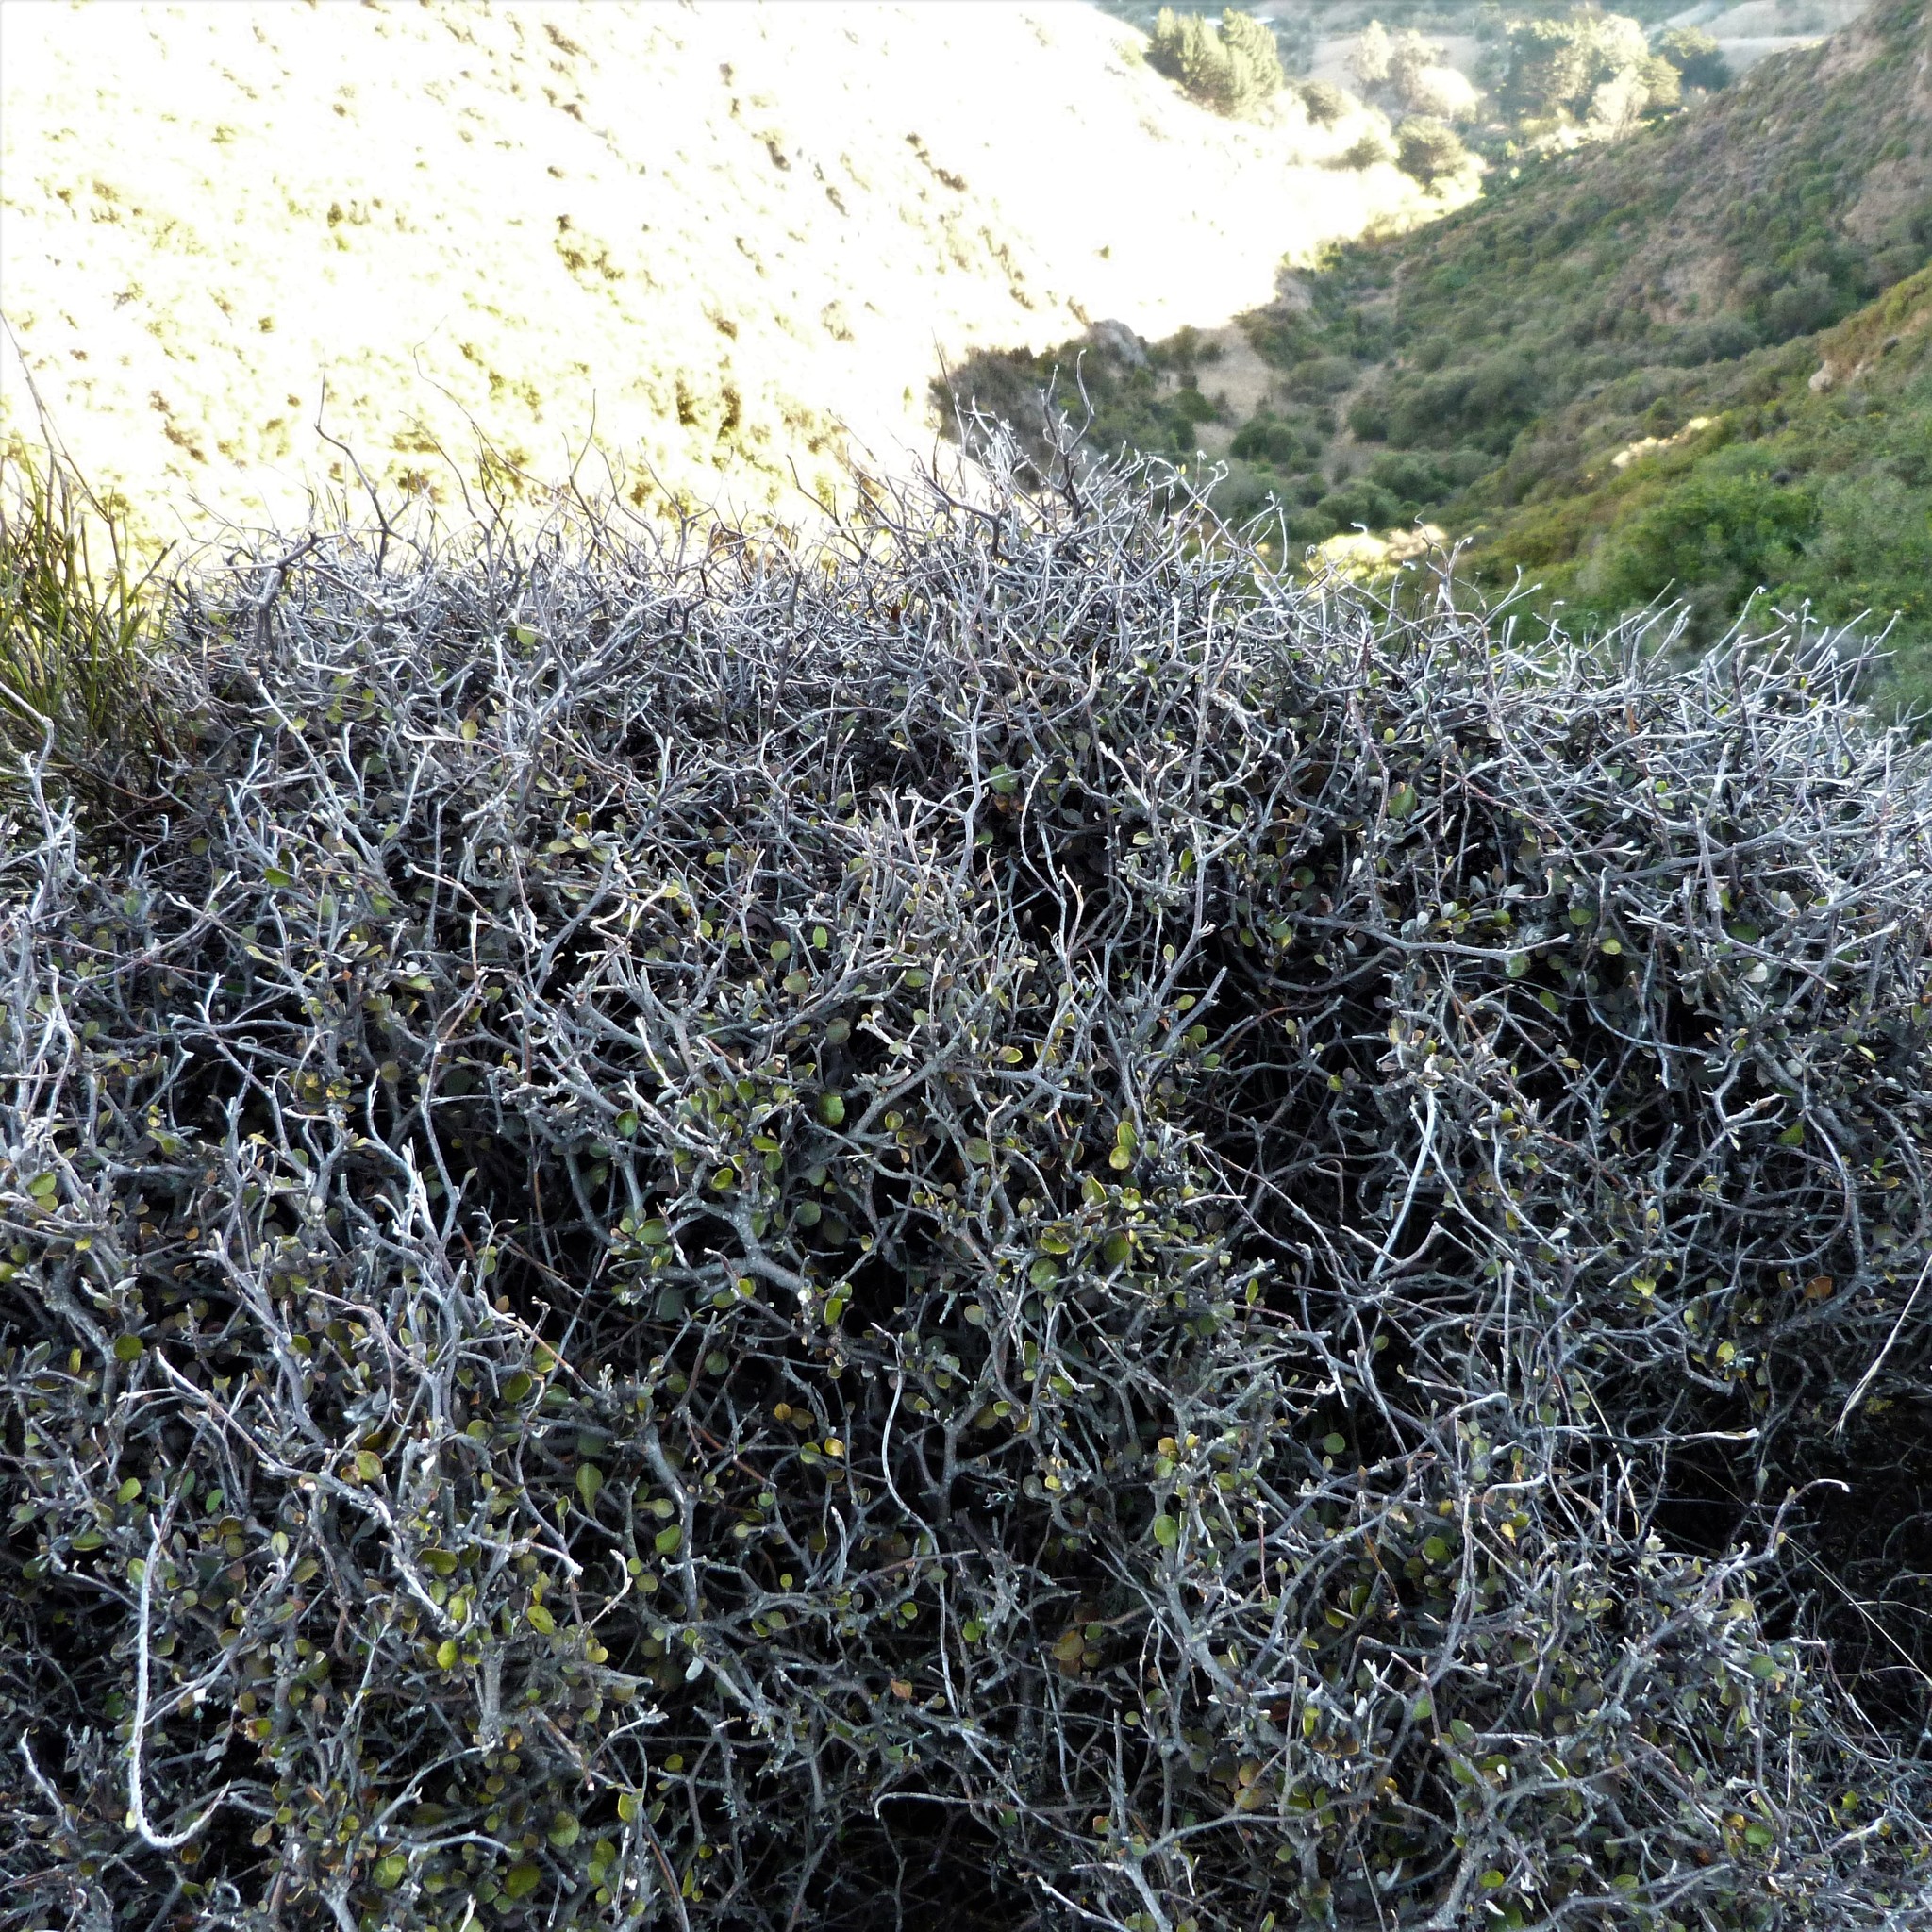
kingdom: Plantae
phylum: Tracheophyta
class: Magnoliopsida
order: Asterales
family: Argophyllaceae
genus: Corokia
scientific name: Corokia cotoneaster
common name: Wire nettingbush
